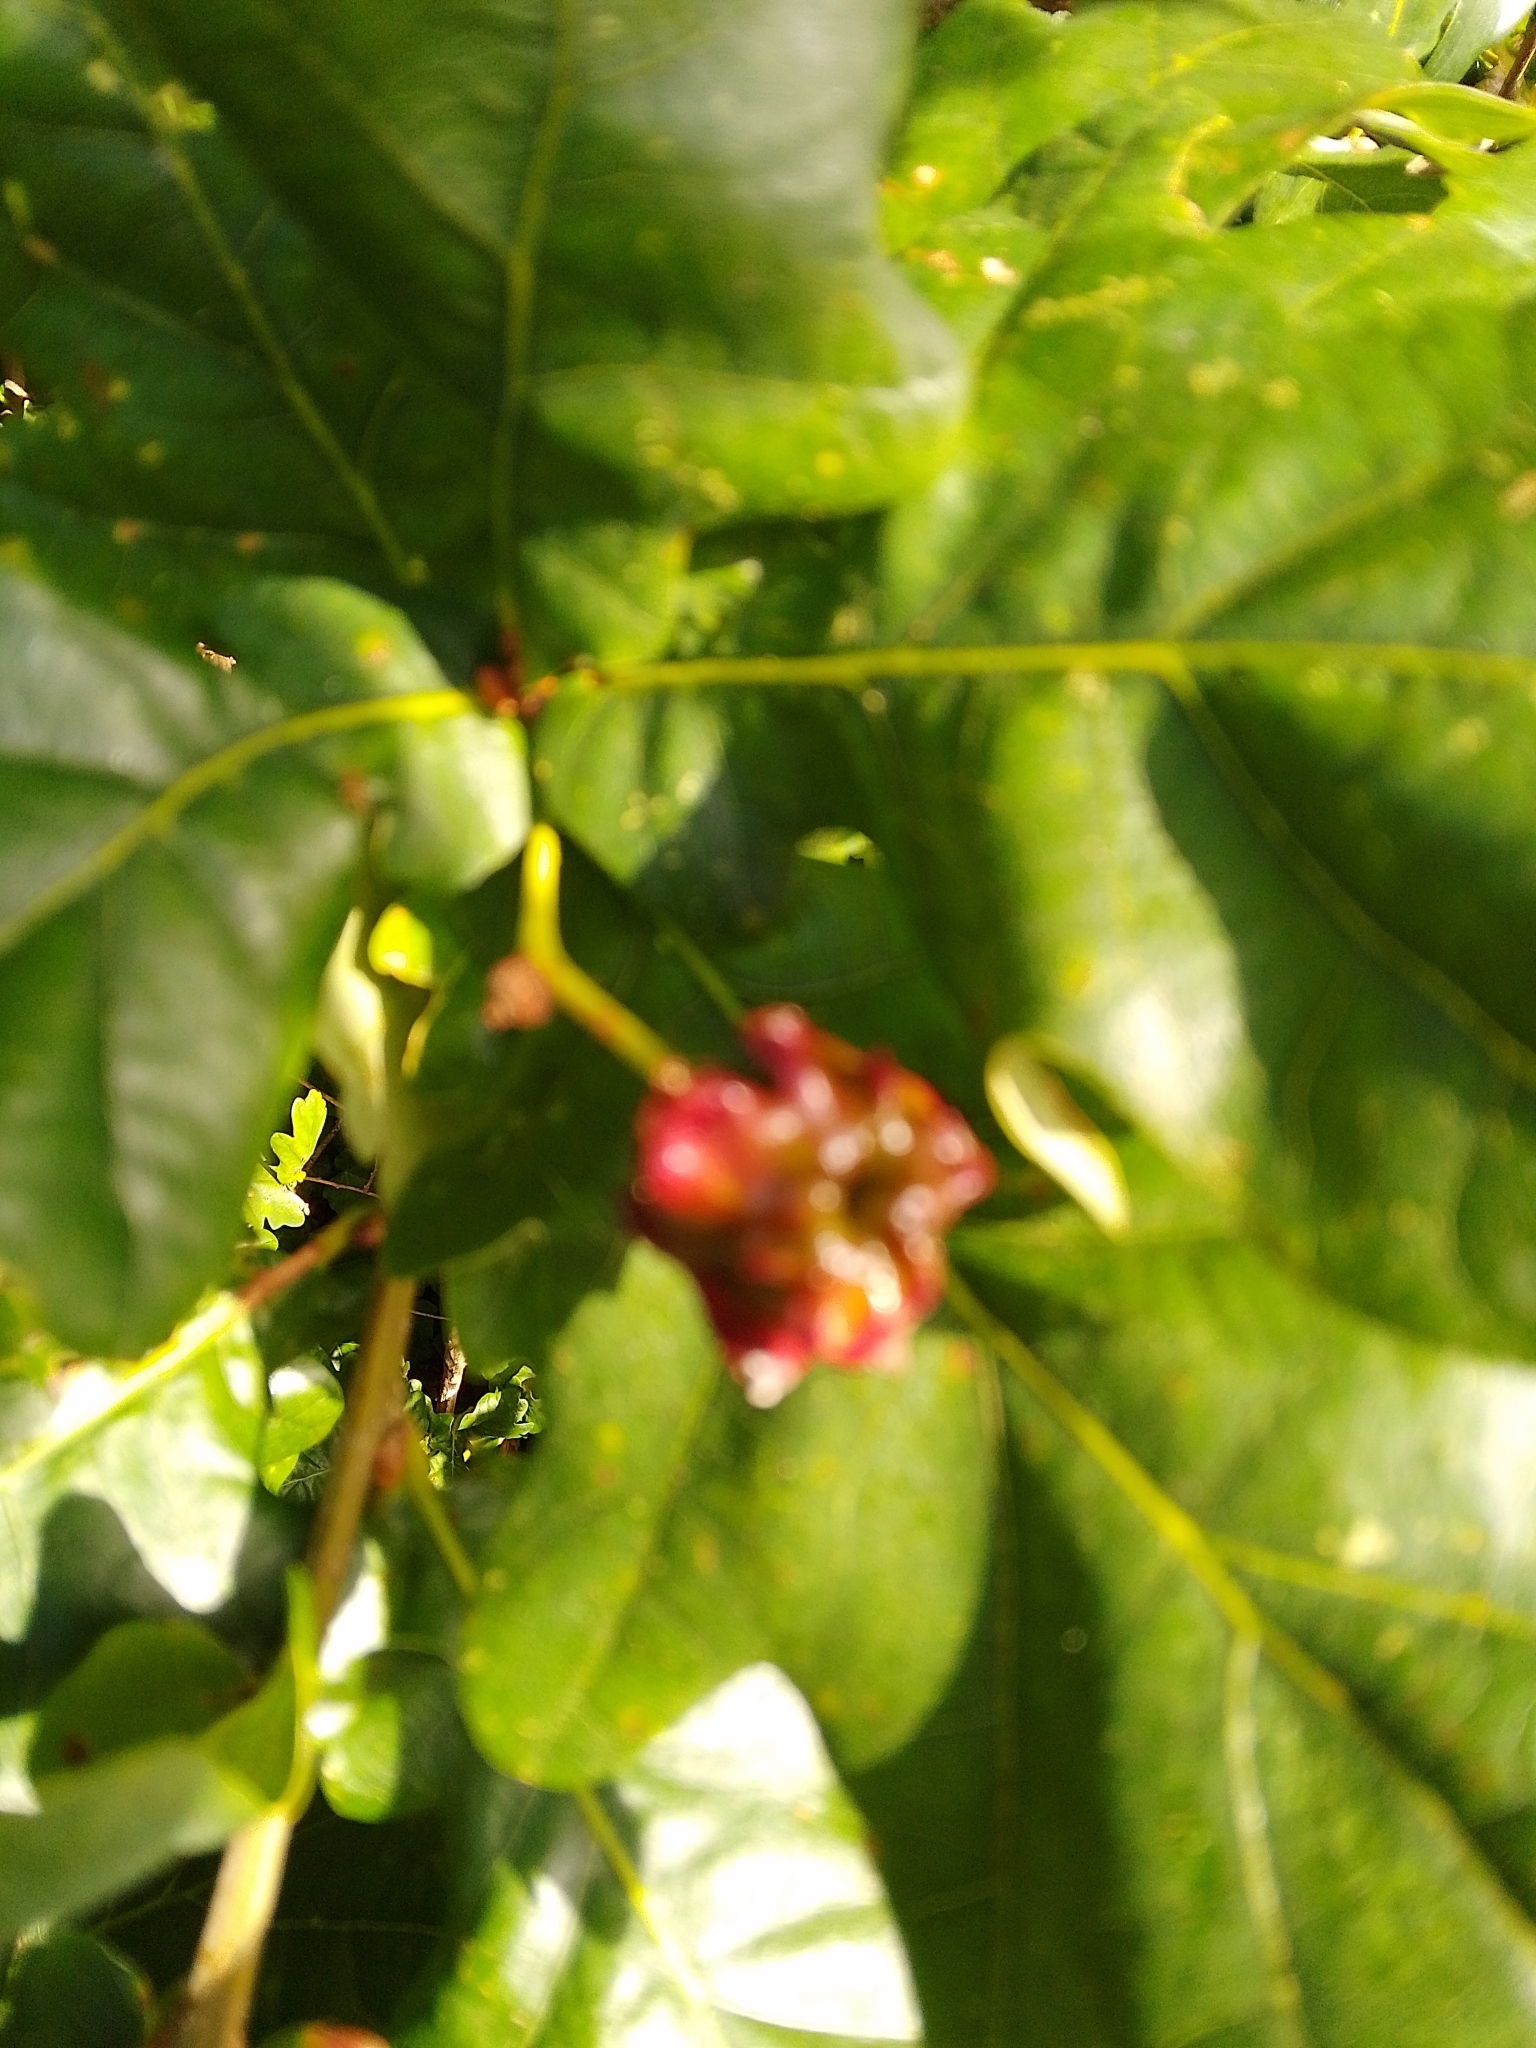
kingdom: Animalia
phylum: Arthropoda
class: Insecta
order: Hymenoptera
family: Cynipidae
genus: Andricus
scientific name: Andricus quercuscalicis
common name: Knopper gall
